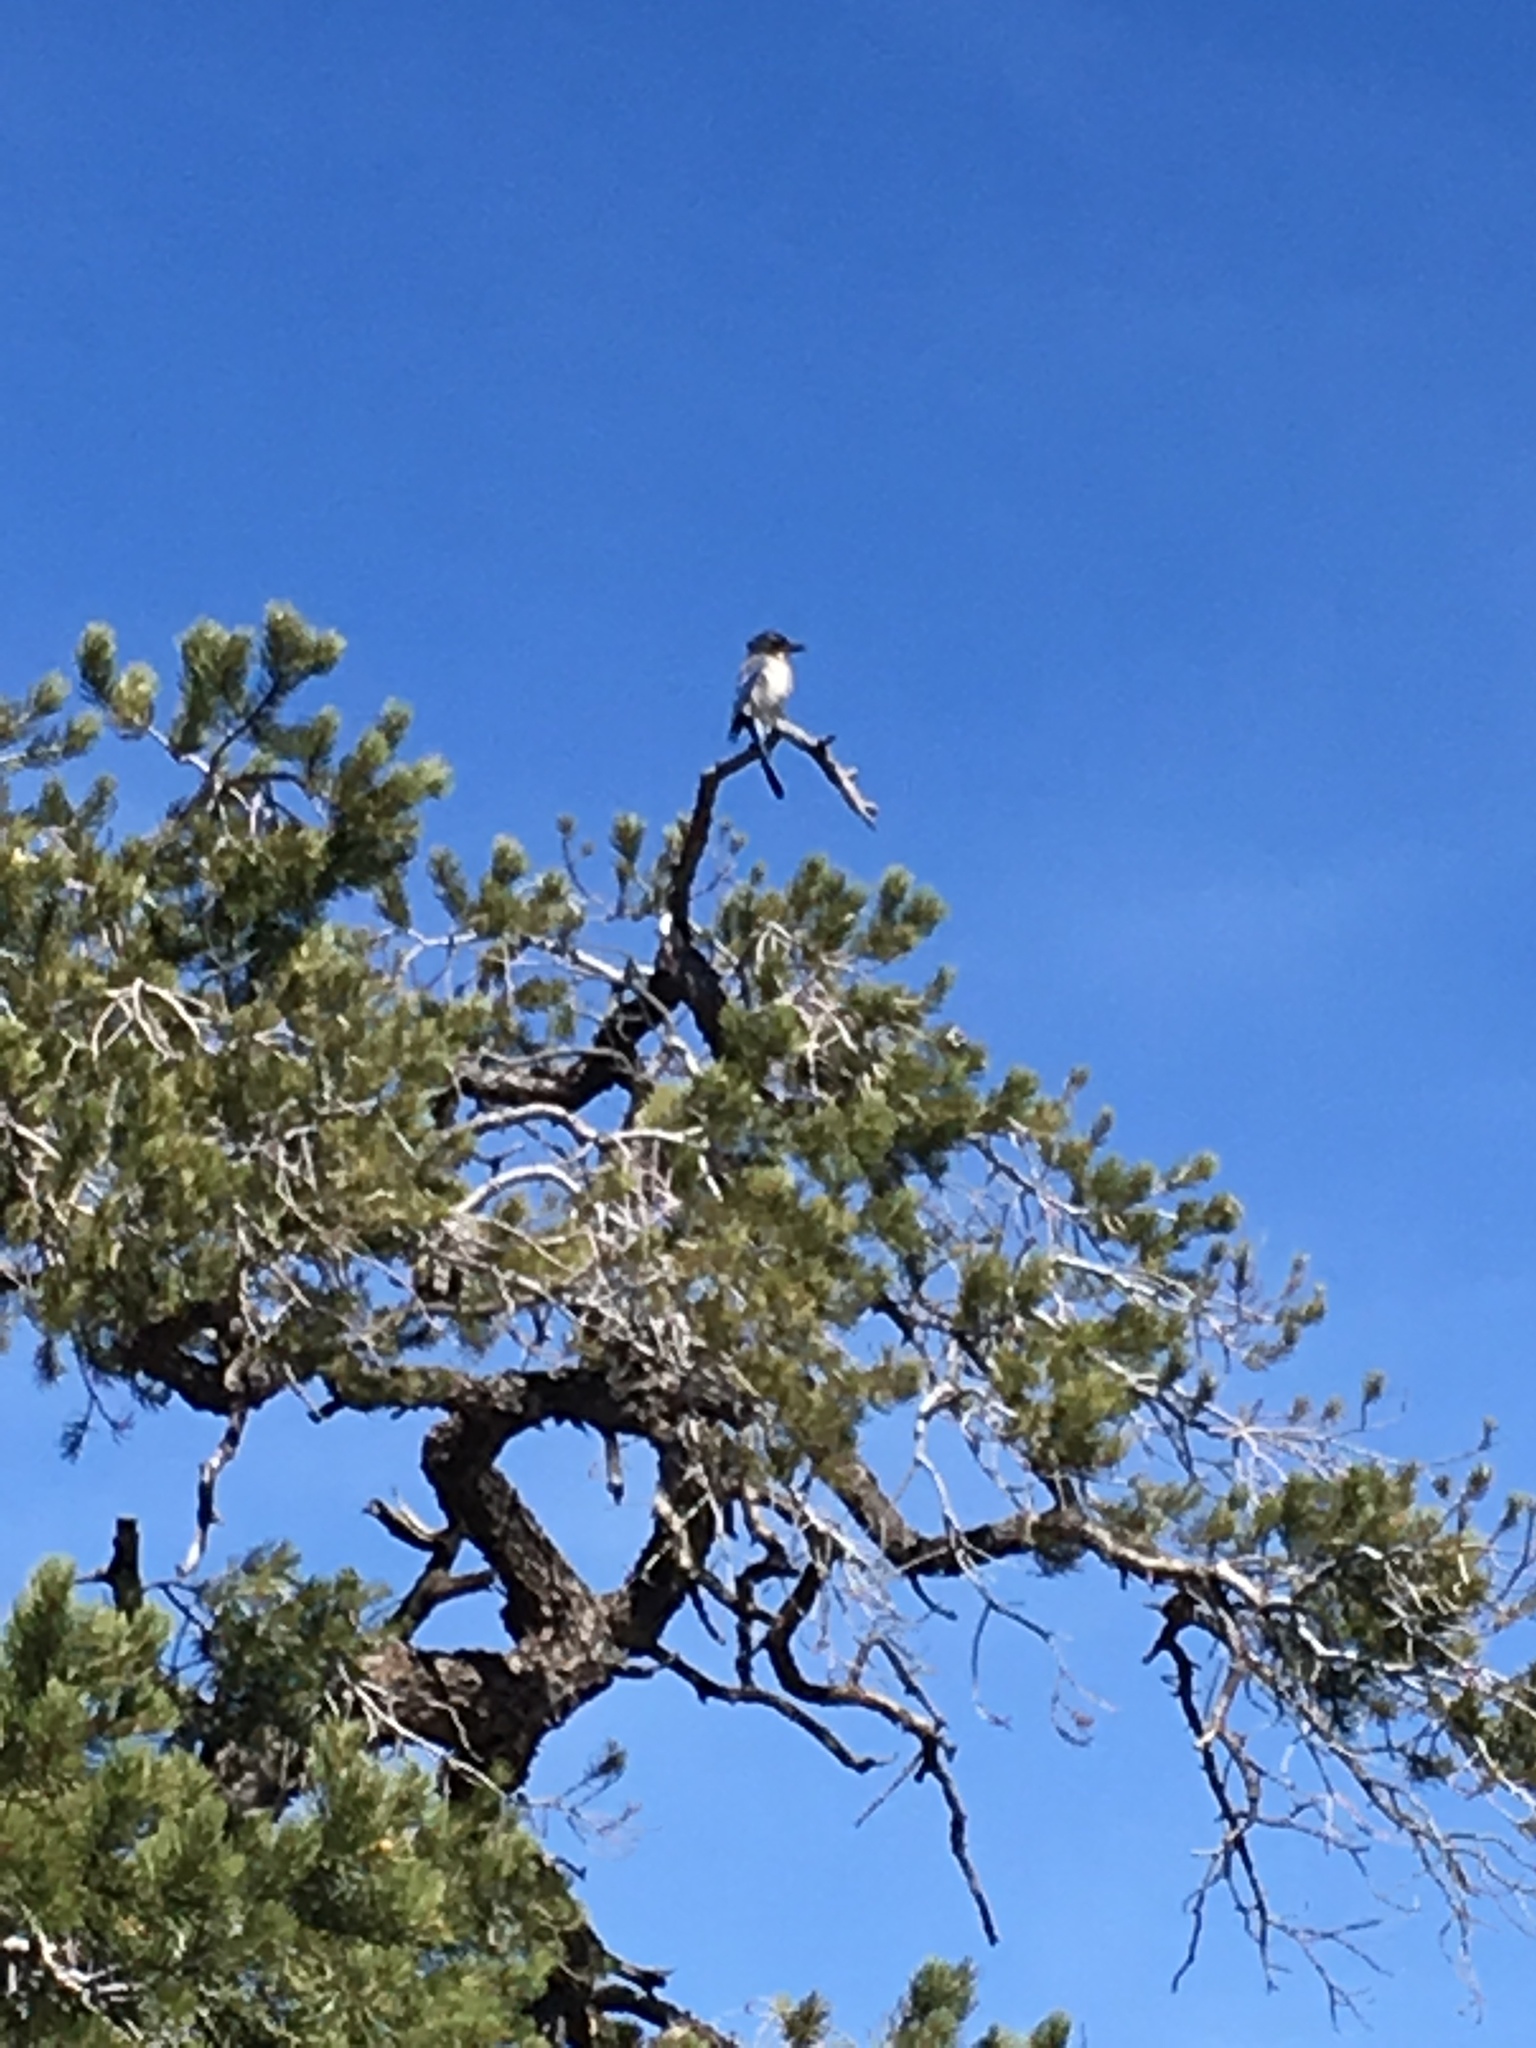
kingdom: Animalia
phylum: Chordata
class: Aves
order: Passeriformes
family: Corvidae
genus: Aphelocoma
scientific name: Aphelocoma californica
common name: California scrub-jay
